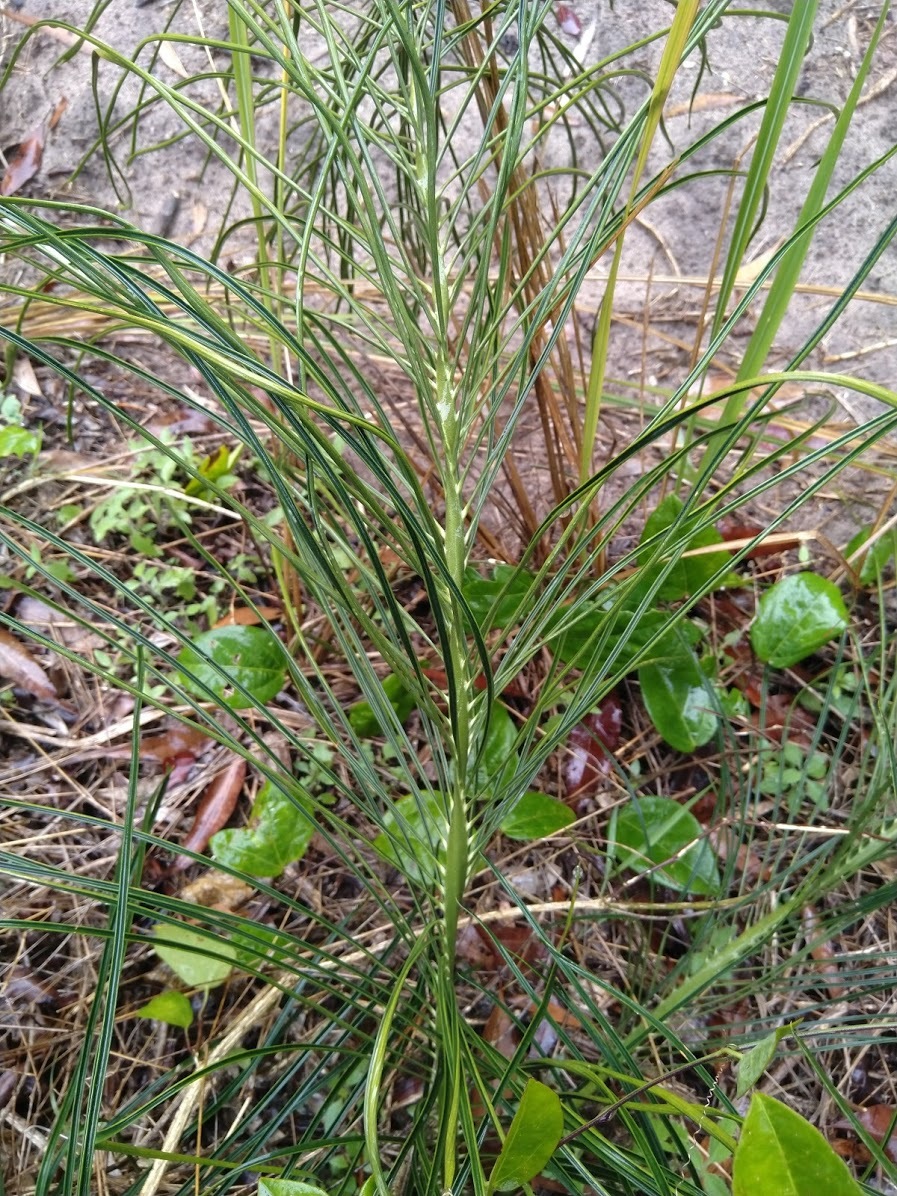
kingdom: Plantae
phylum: Tracheophyta
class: Cycadopsida
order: Cycadales
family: Zamiaceae
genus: Macrozamia
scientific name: Macrozamia pauli-guilielmi
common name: Pineapple zamia
